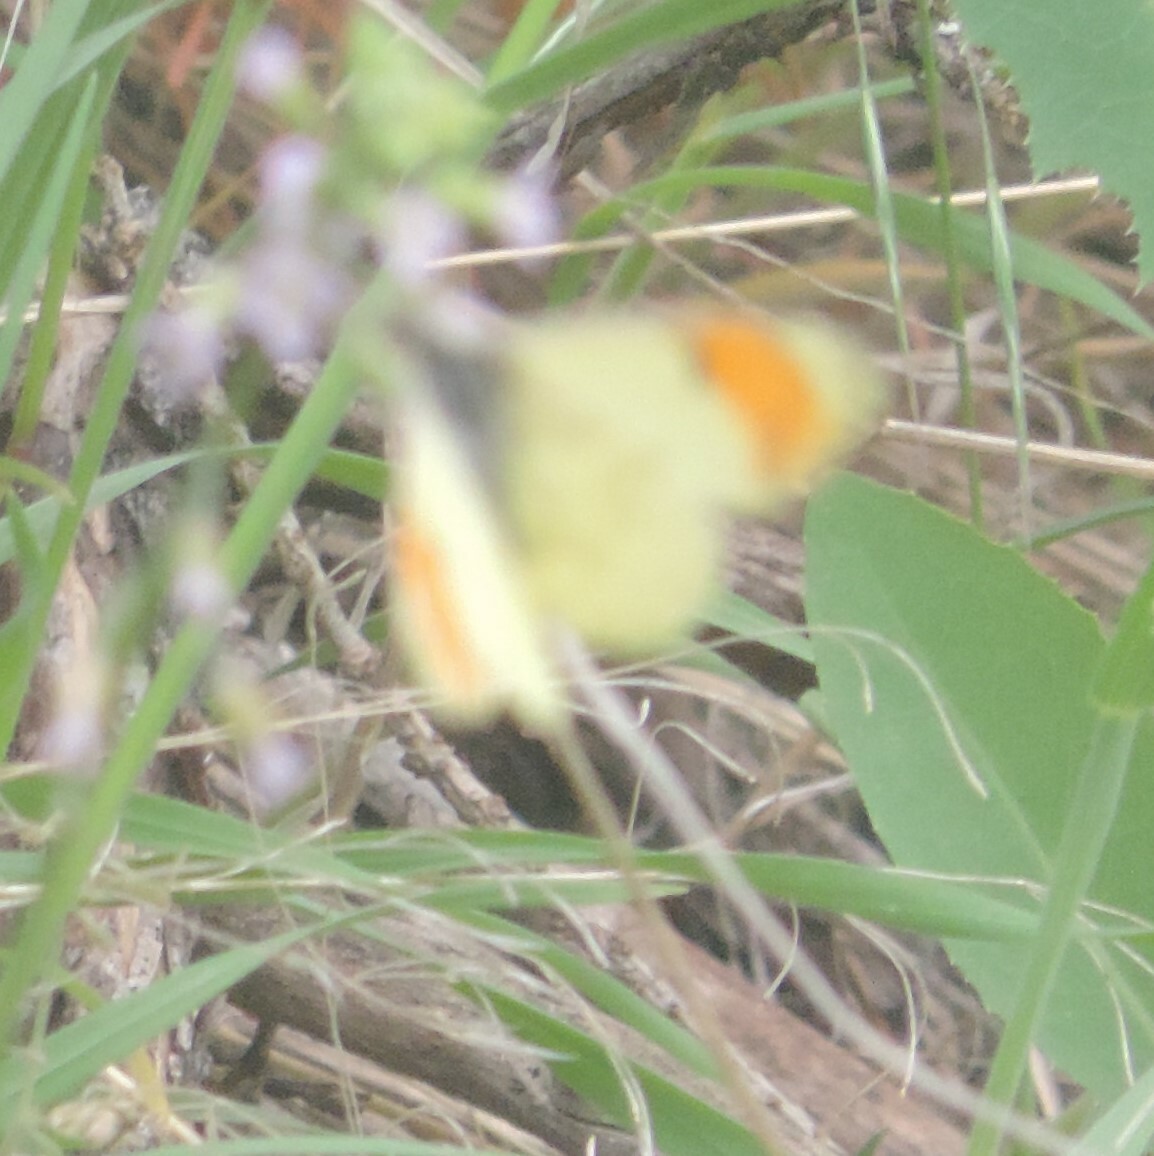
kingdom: Animalia
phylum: Arthropoda
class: Insecta
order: Lepidoptera
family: Pieridae
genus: Anthocharis
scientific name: Anthocharis julia
